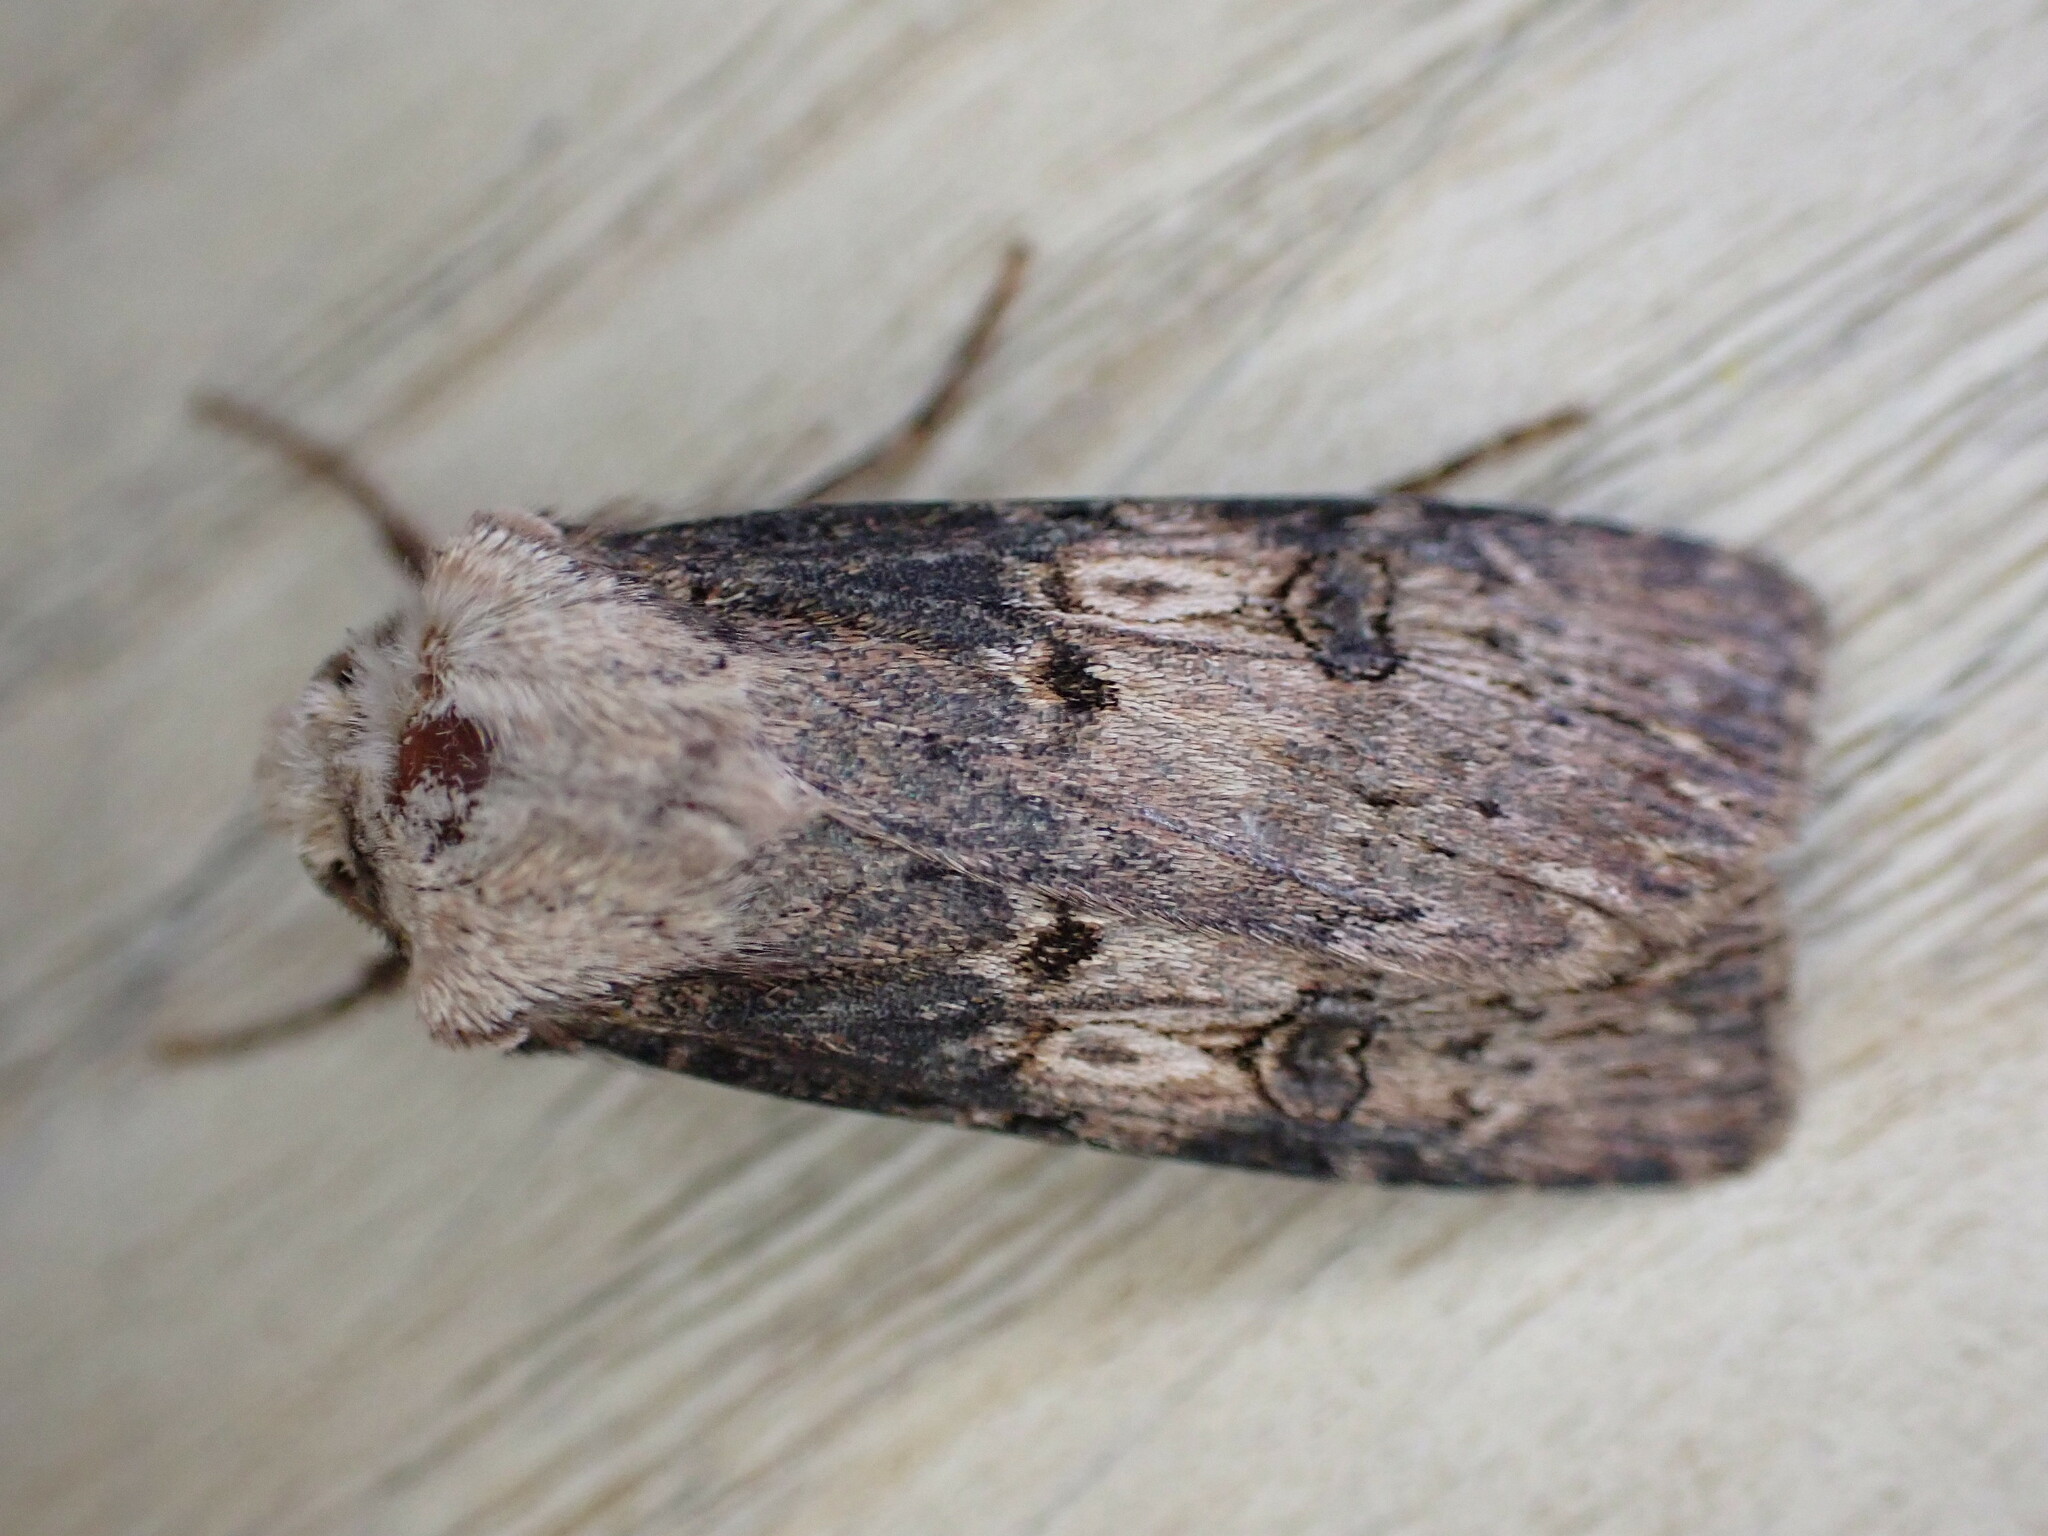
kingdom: Animalia
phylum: Arthropoda
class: Insecta
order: Lepidoptera
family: Noctuidae
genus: Agrotis
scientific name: Agrotis puta
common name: Shuttle-shaped dart
